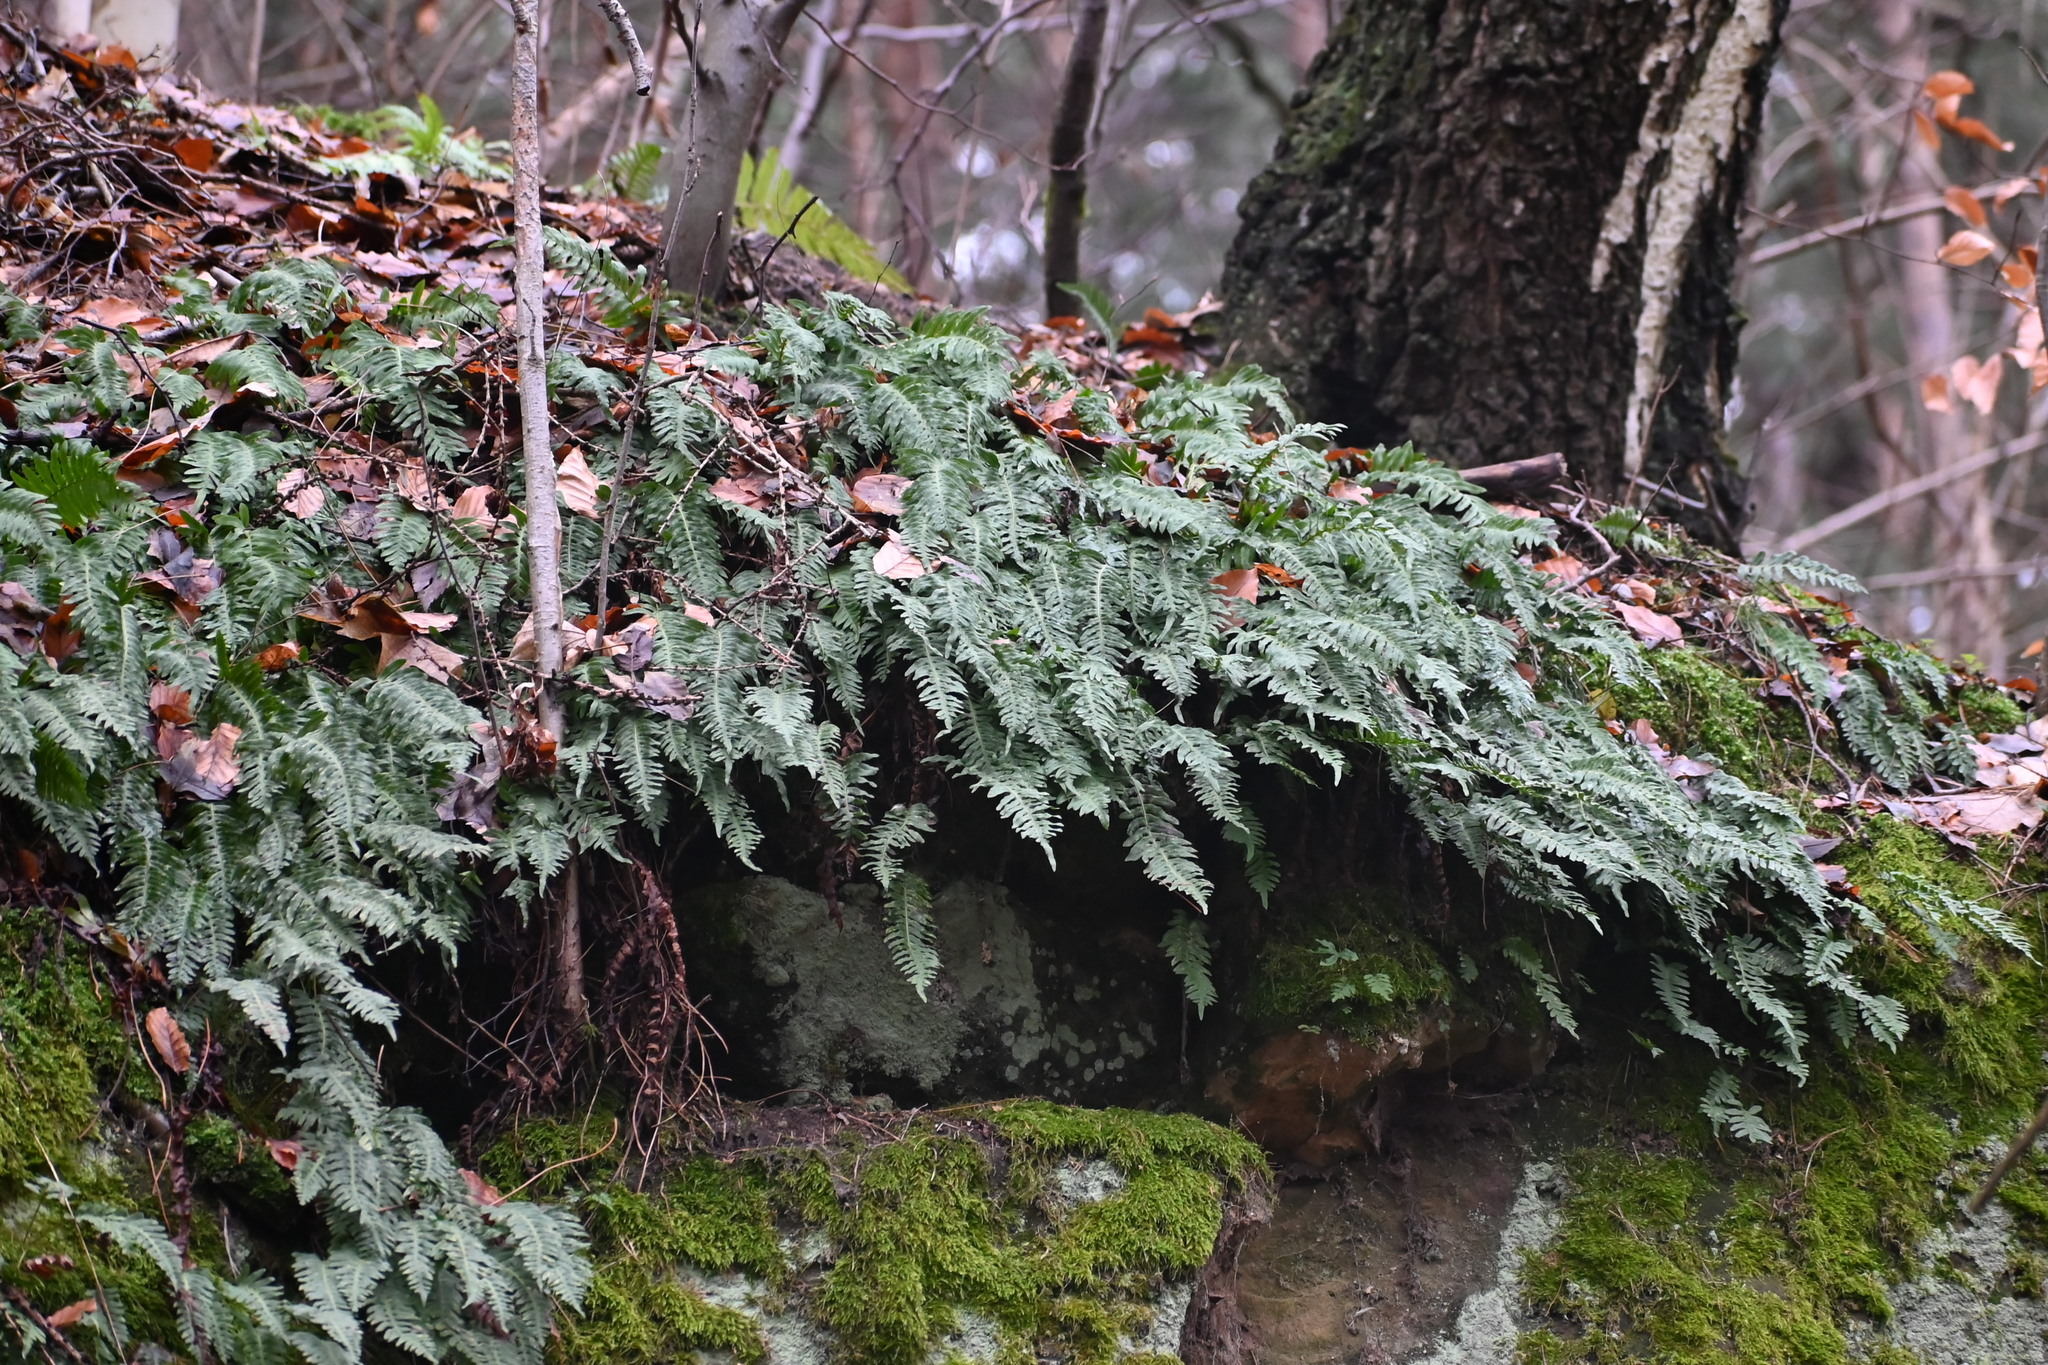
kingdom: Plantae
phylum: Tracheophyta
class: Polypodiopsida
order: Polypodiales
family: Polypodiaceae
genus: Polypodium
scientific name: Polypodium vulgare
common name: Common polypody
